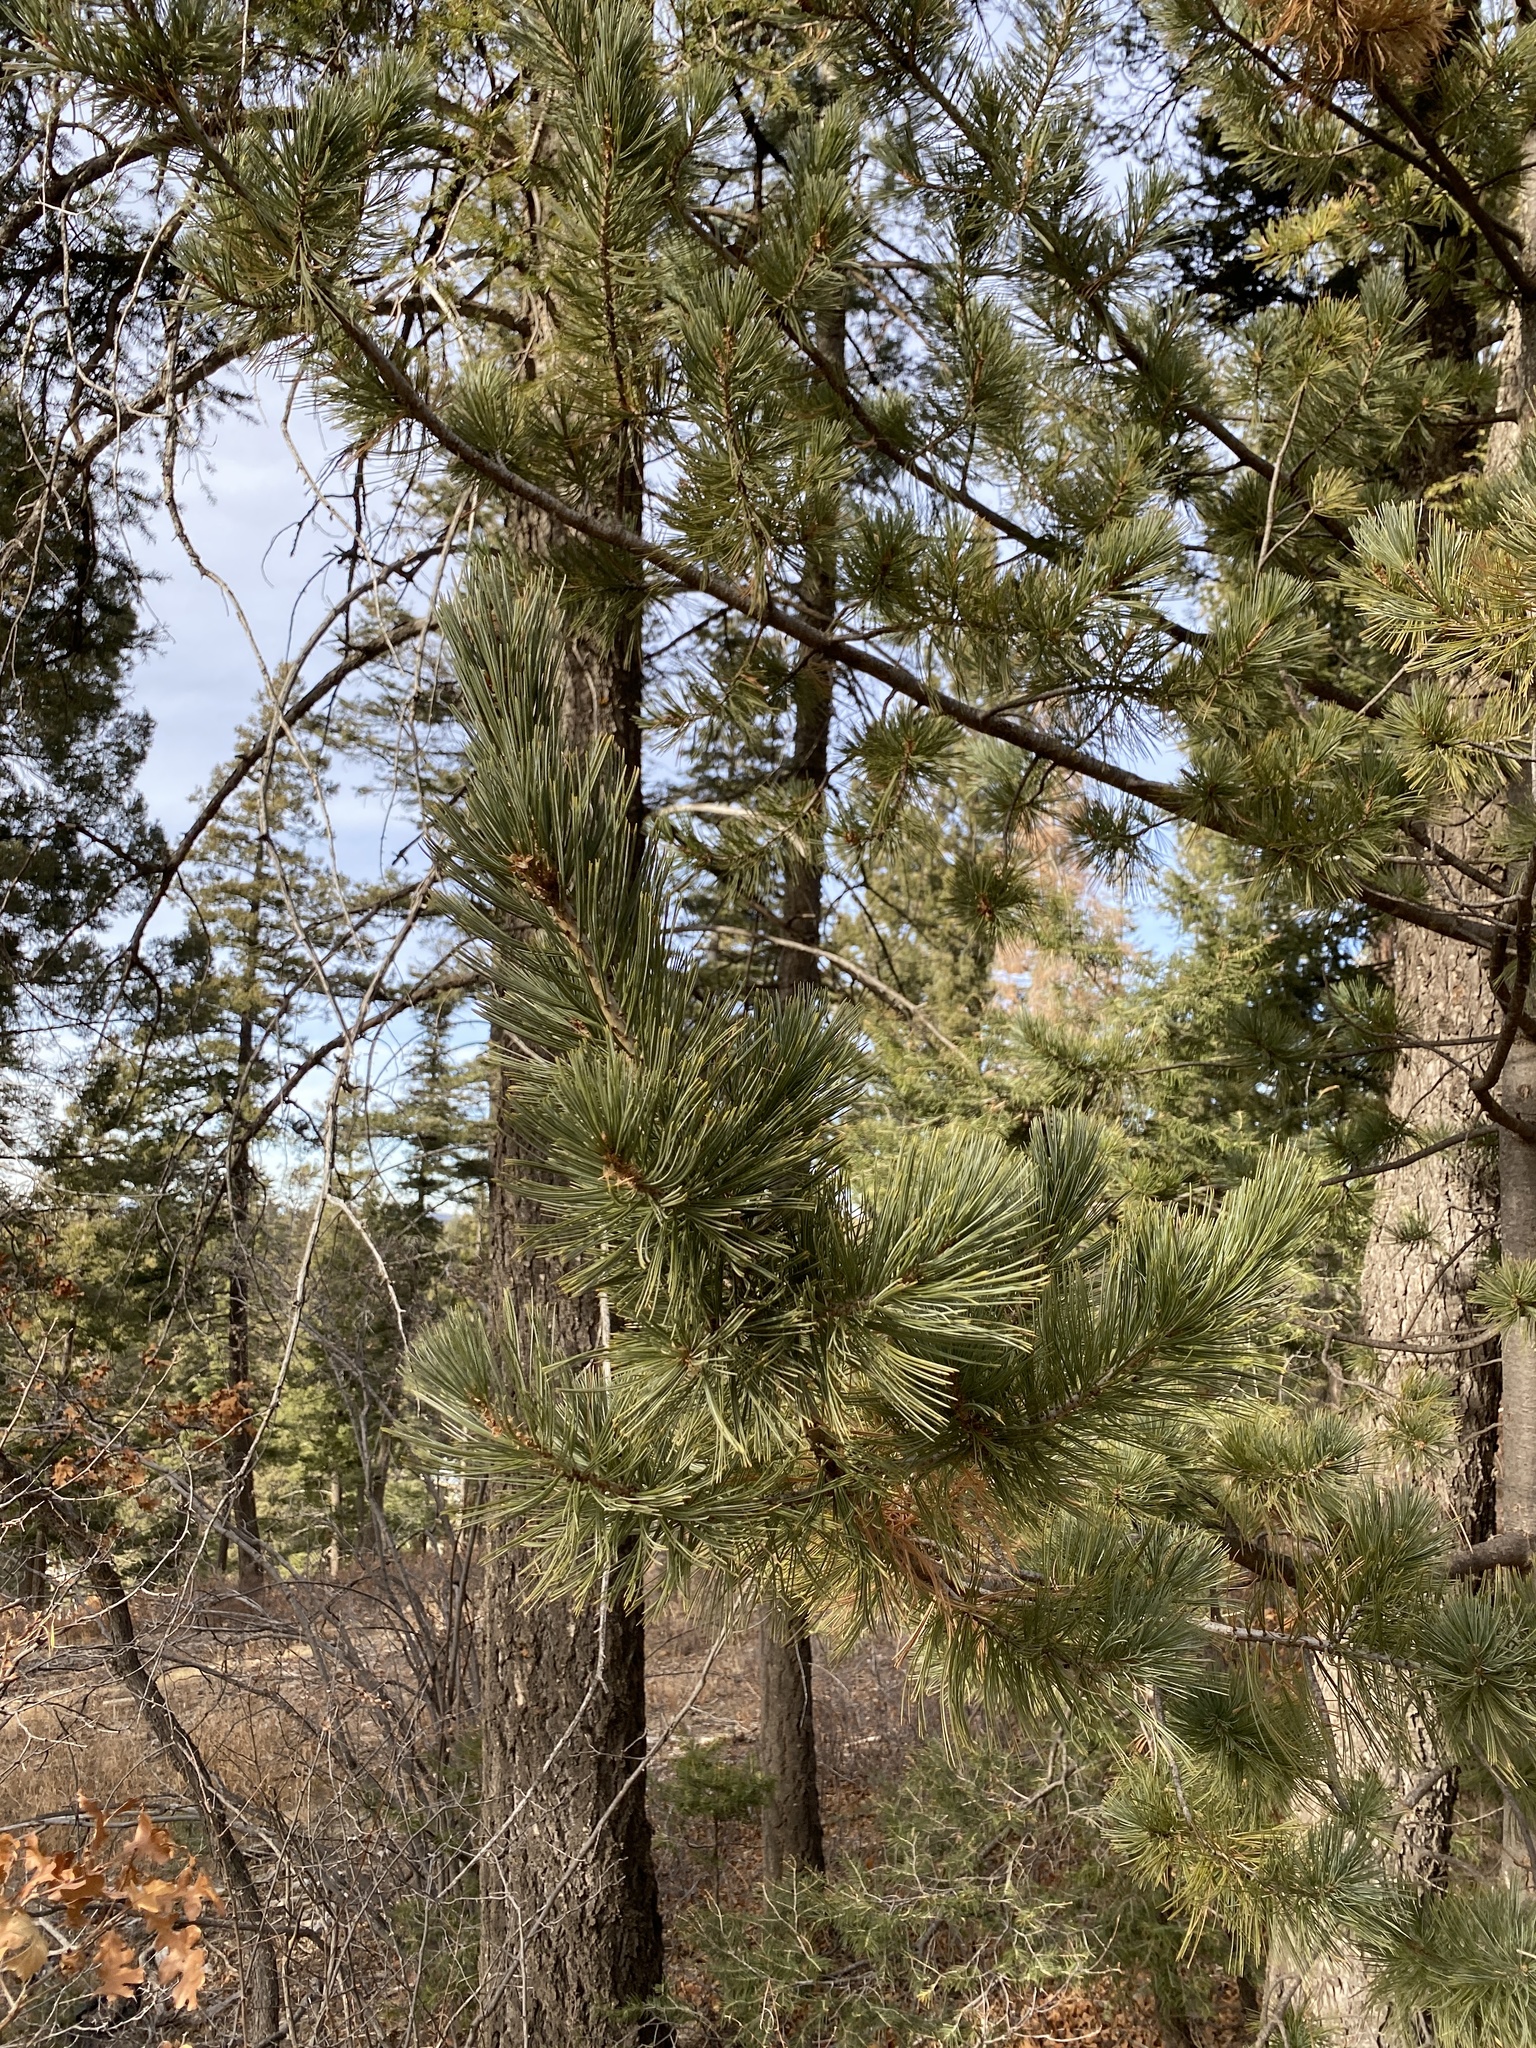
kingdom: Plantae
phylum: Tracheophyta
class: Pinopsida
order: Pinales
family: Pinaceae
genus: Pinus
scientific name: Pinus strobiformis
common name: Southwestern white pine
